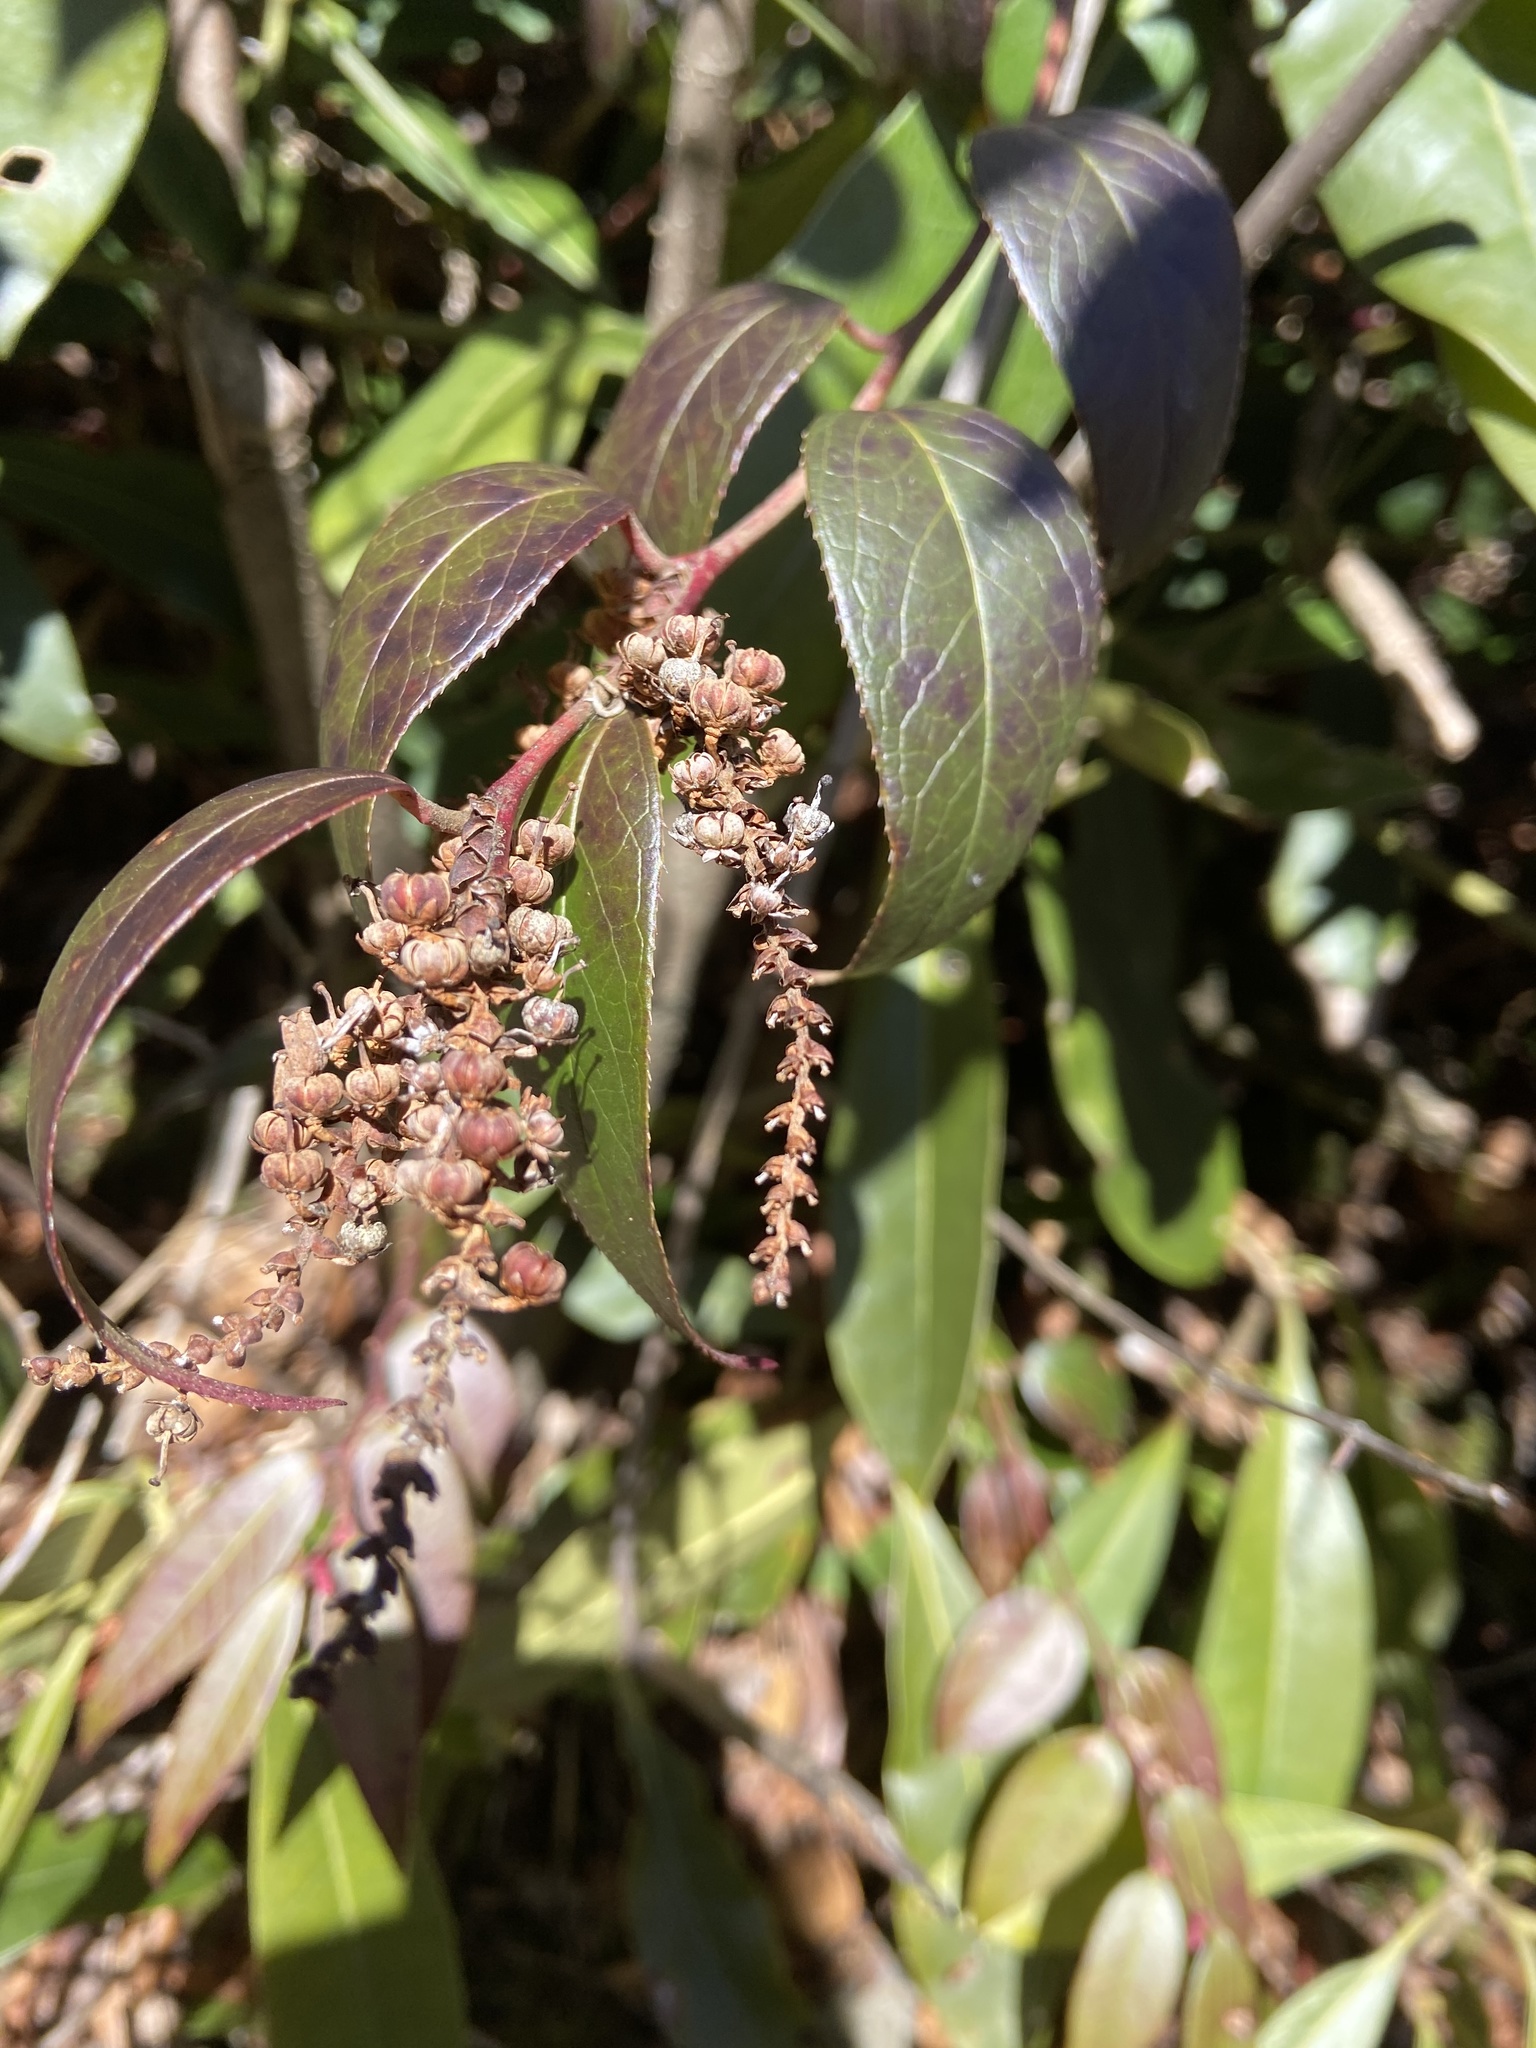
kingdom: Plantae
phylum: Tracheophyta
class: Magnoliopsida
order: Ericales
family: Ericaceae
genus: Leucothoe
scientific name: Leucothoe fontanesiana
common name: Fetterbush
